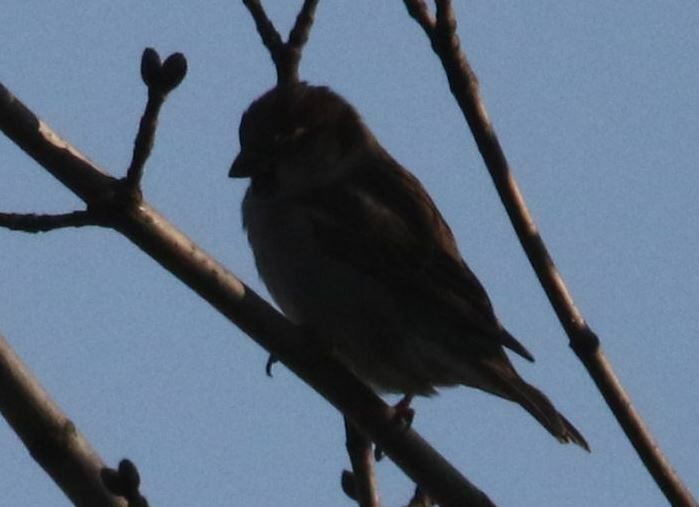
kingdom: Animalia
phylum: Chordata
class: Aves
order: Passeriformes
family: Passeridae
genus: Passer
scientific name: Passer domesticus
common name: House sparrow
